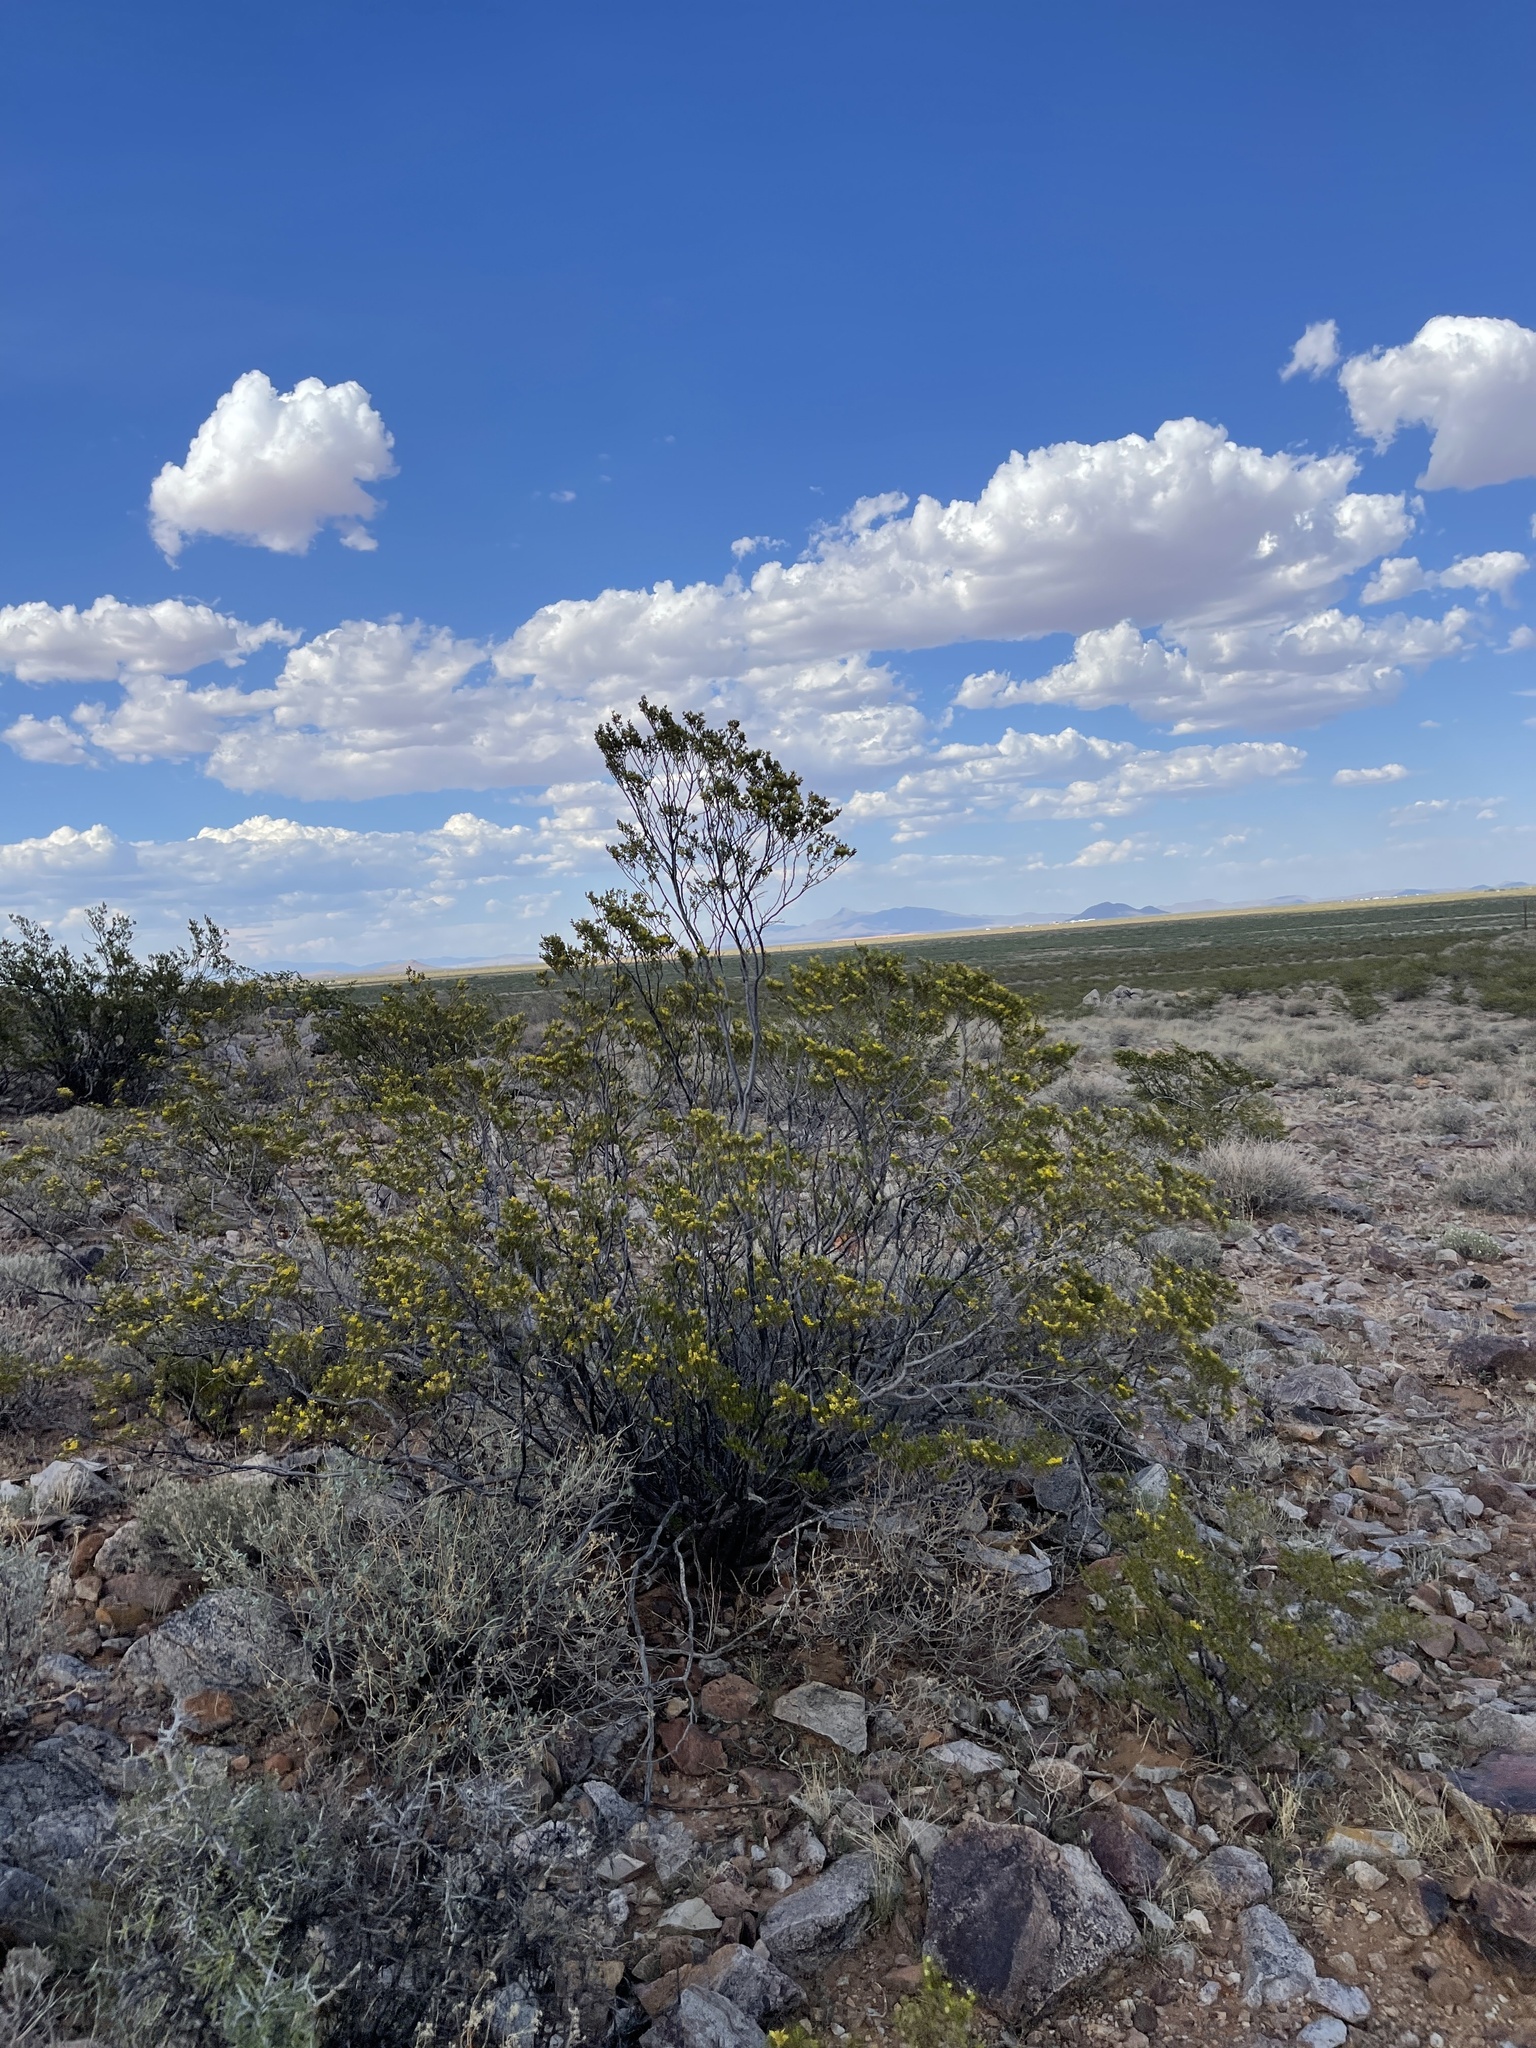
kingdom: Plantae
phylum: Tracheophyta
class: Magnoliopsida
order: Zygophyllales
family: Zygophyllaceae
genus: Larrea
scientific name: Larrea tridentata
